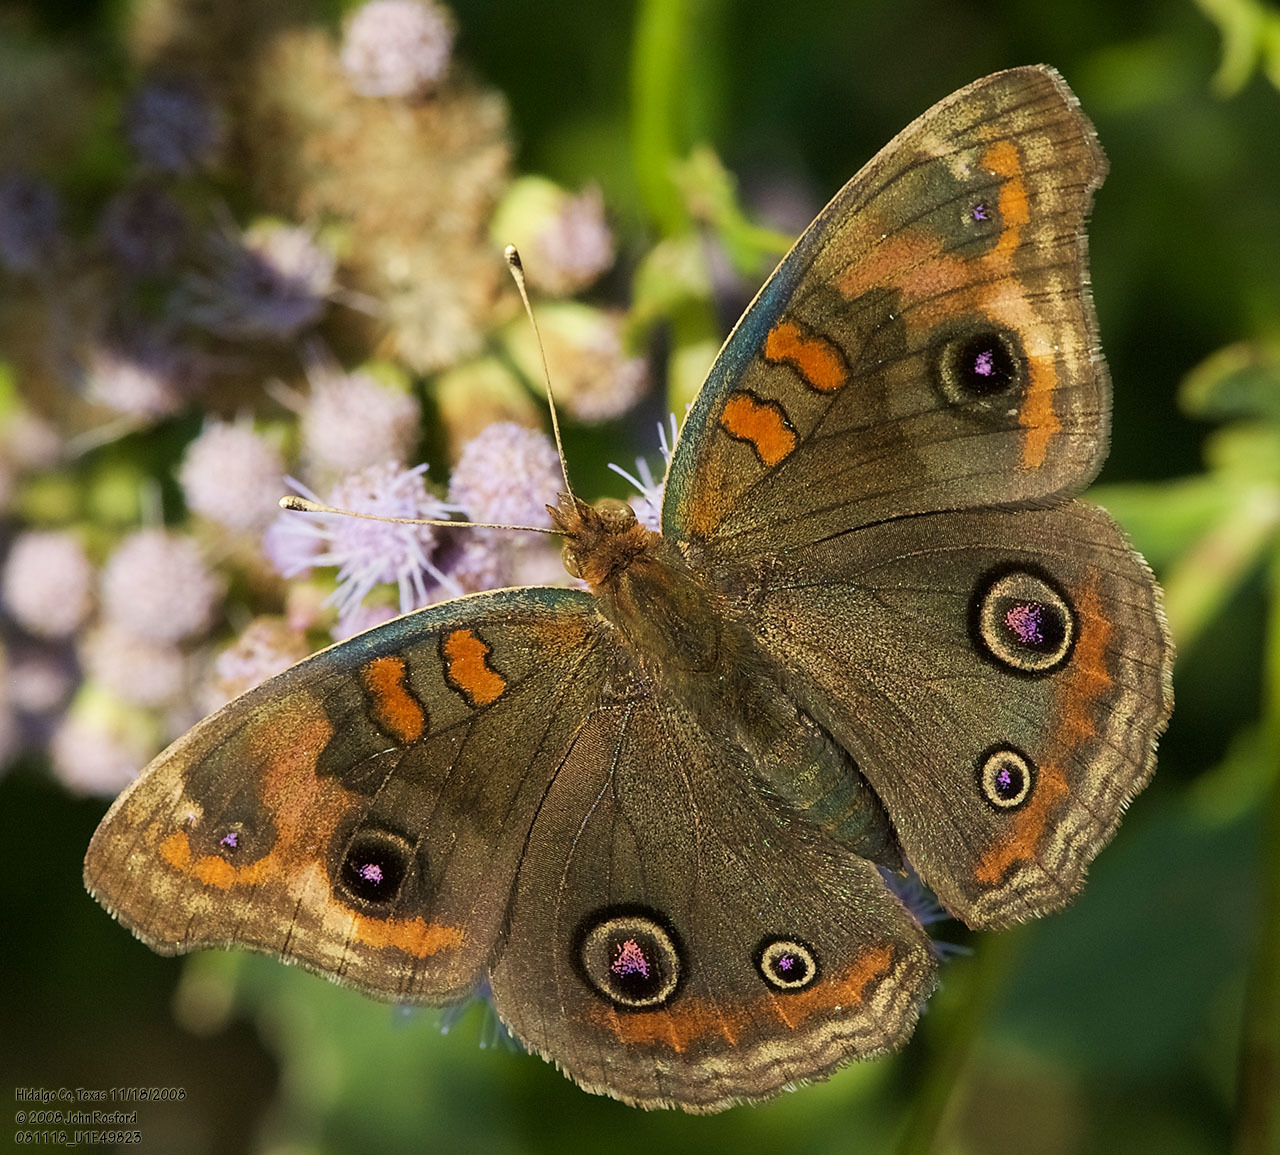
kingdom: Animalia
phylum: Arthropoda
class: Insecta
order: Lepidoptera
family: Nymphalidae
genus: Junonia
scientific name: Junonia stemosa
